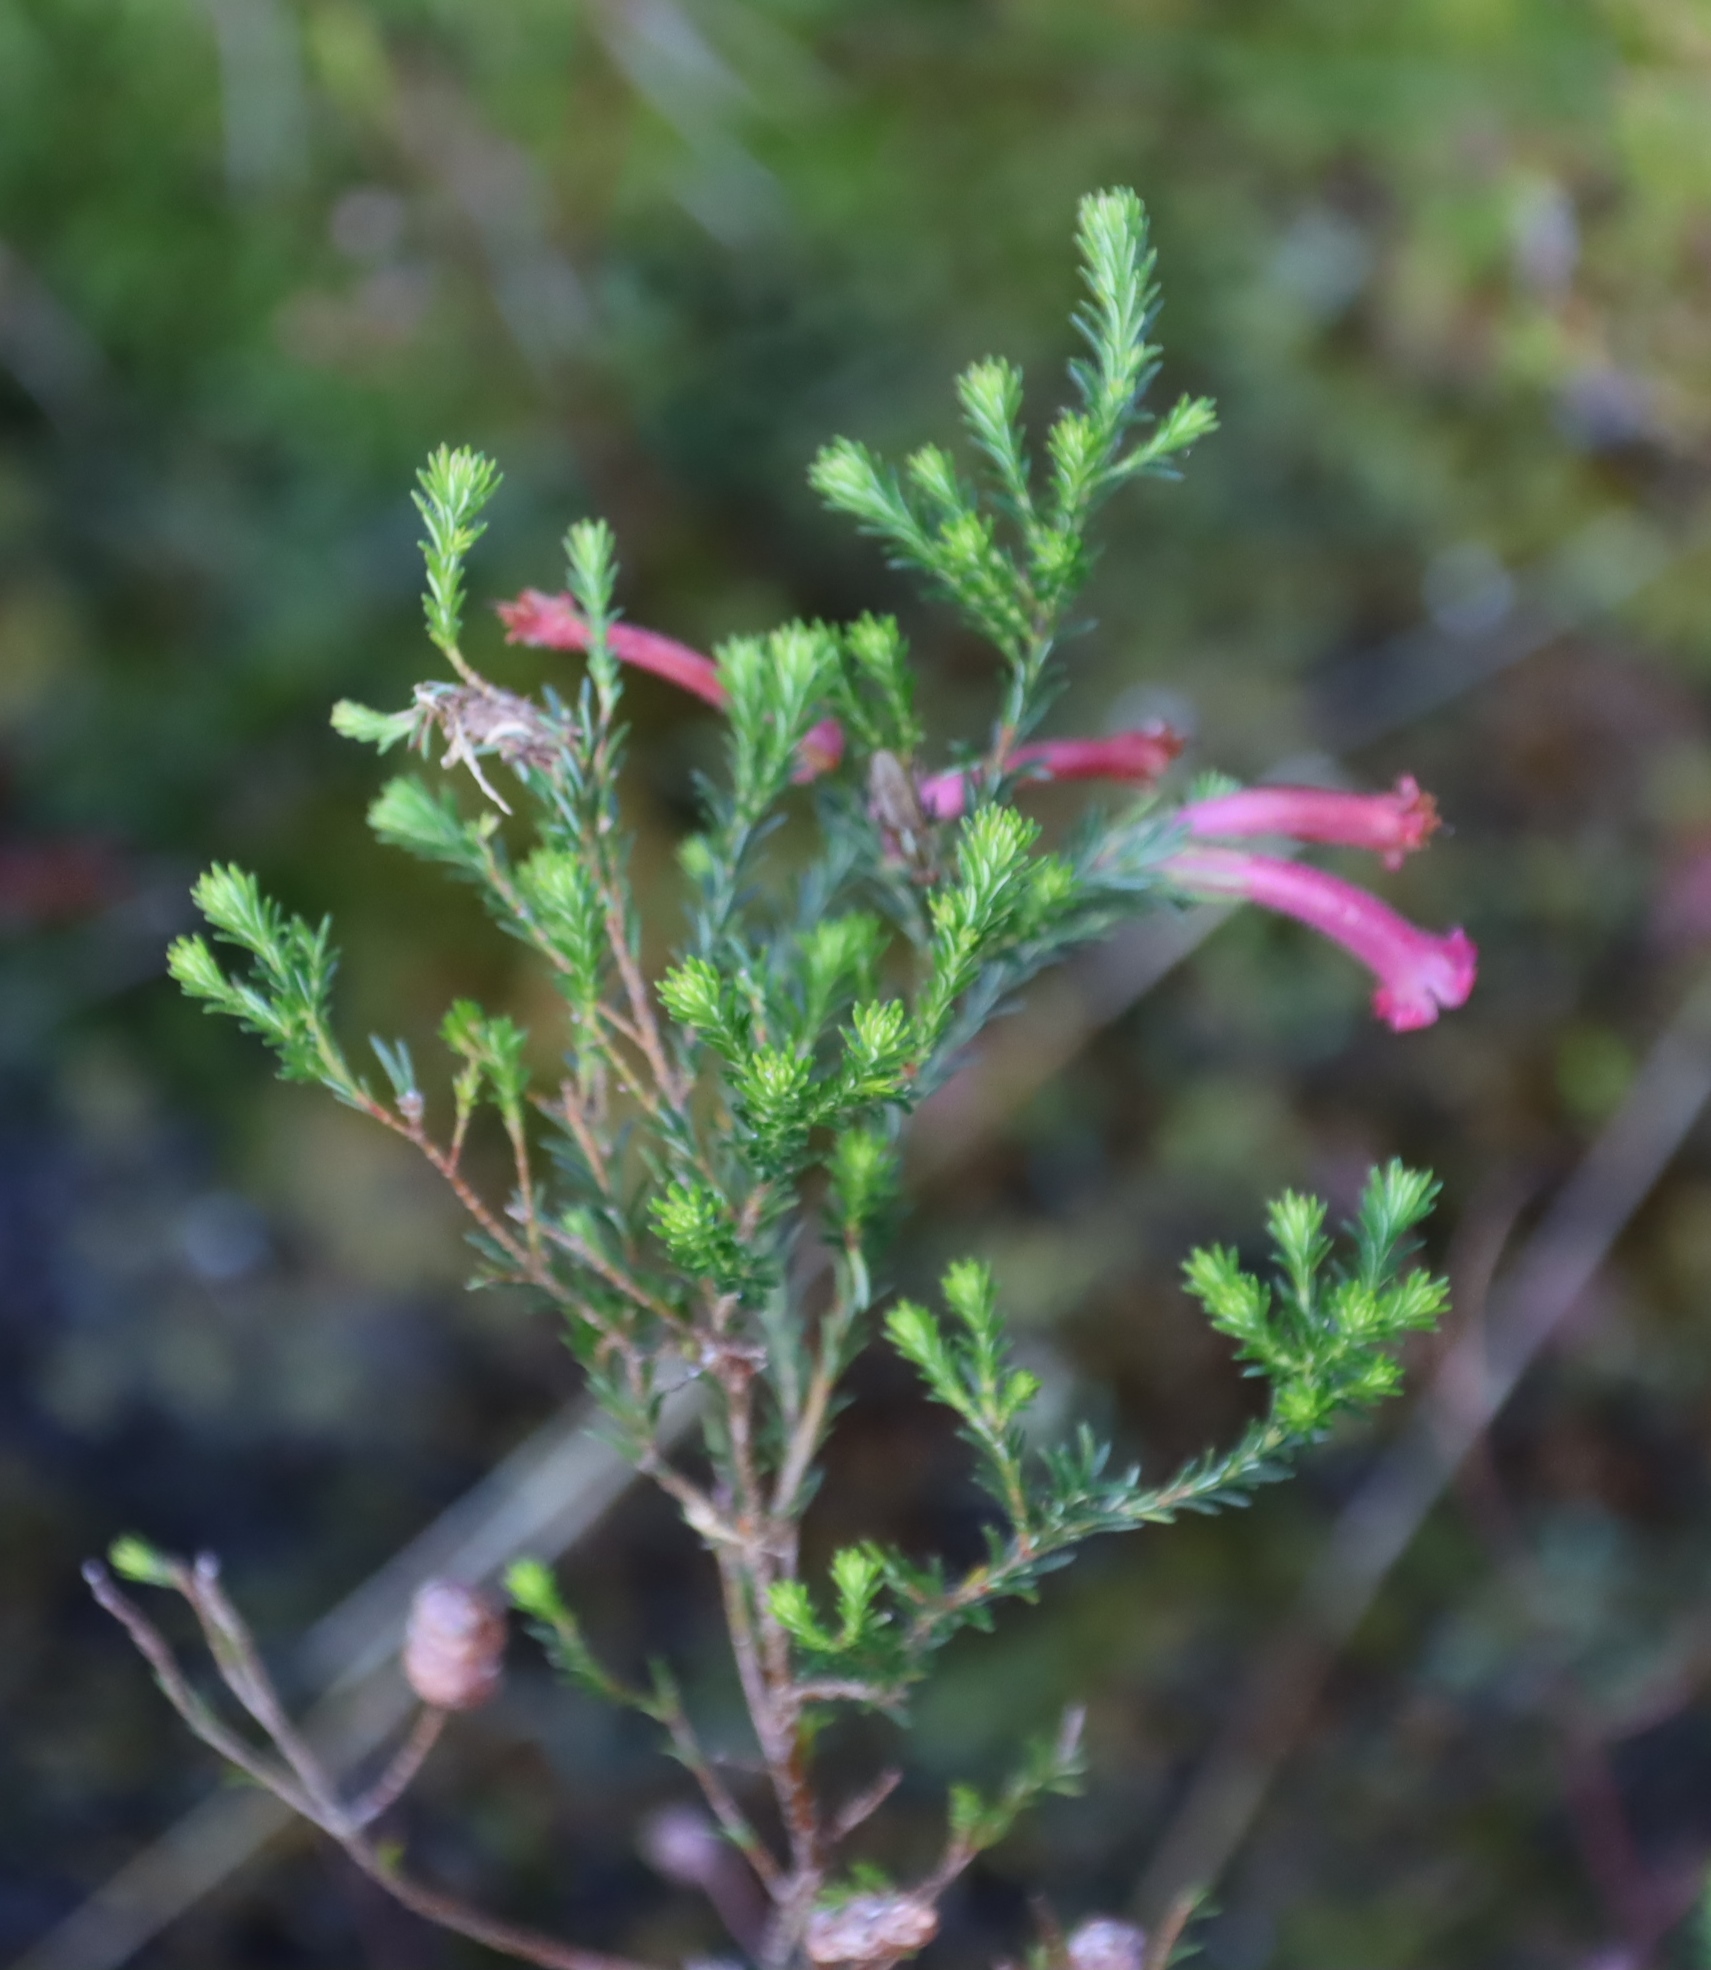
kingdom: Plantae
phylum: Tracheophyta
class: Magnoliopsida
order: Ericales
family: Ericaceae
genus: Erica
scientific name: Erica curviflora
